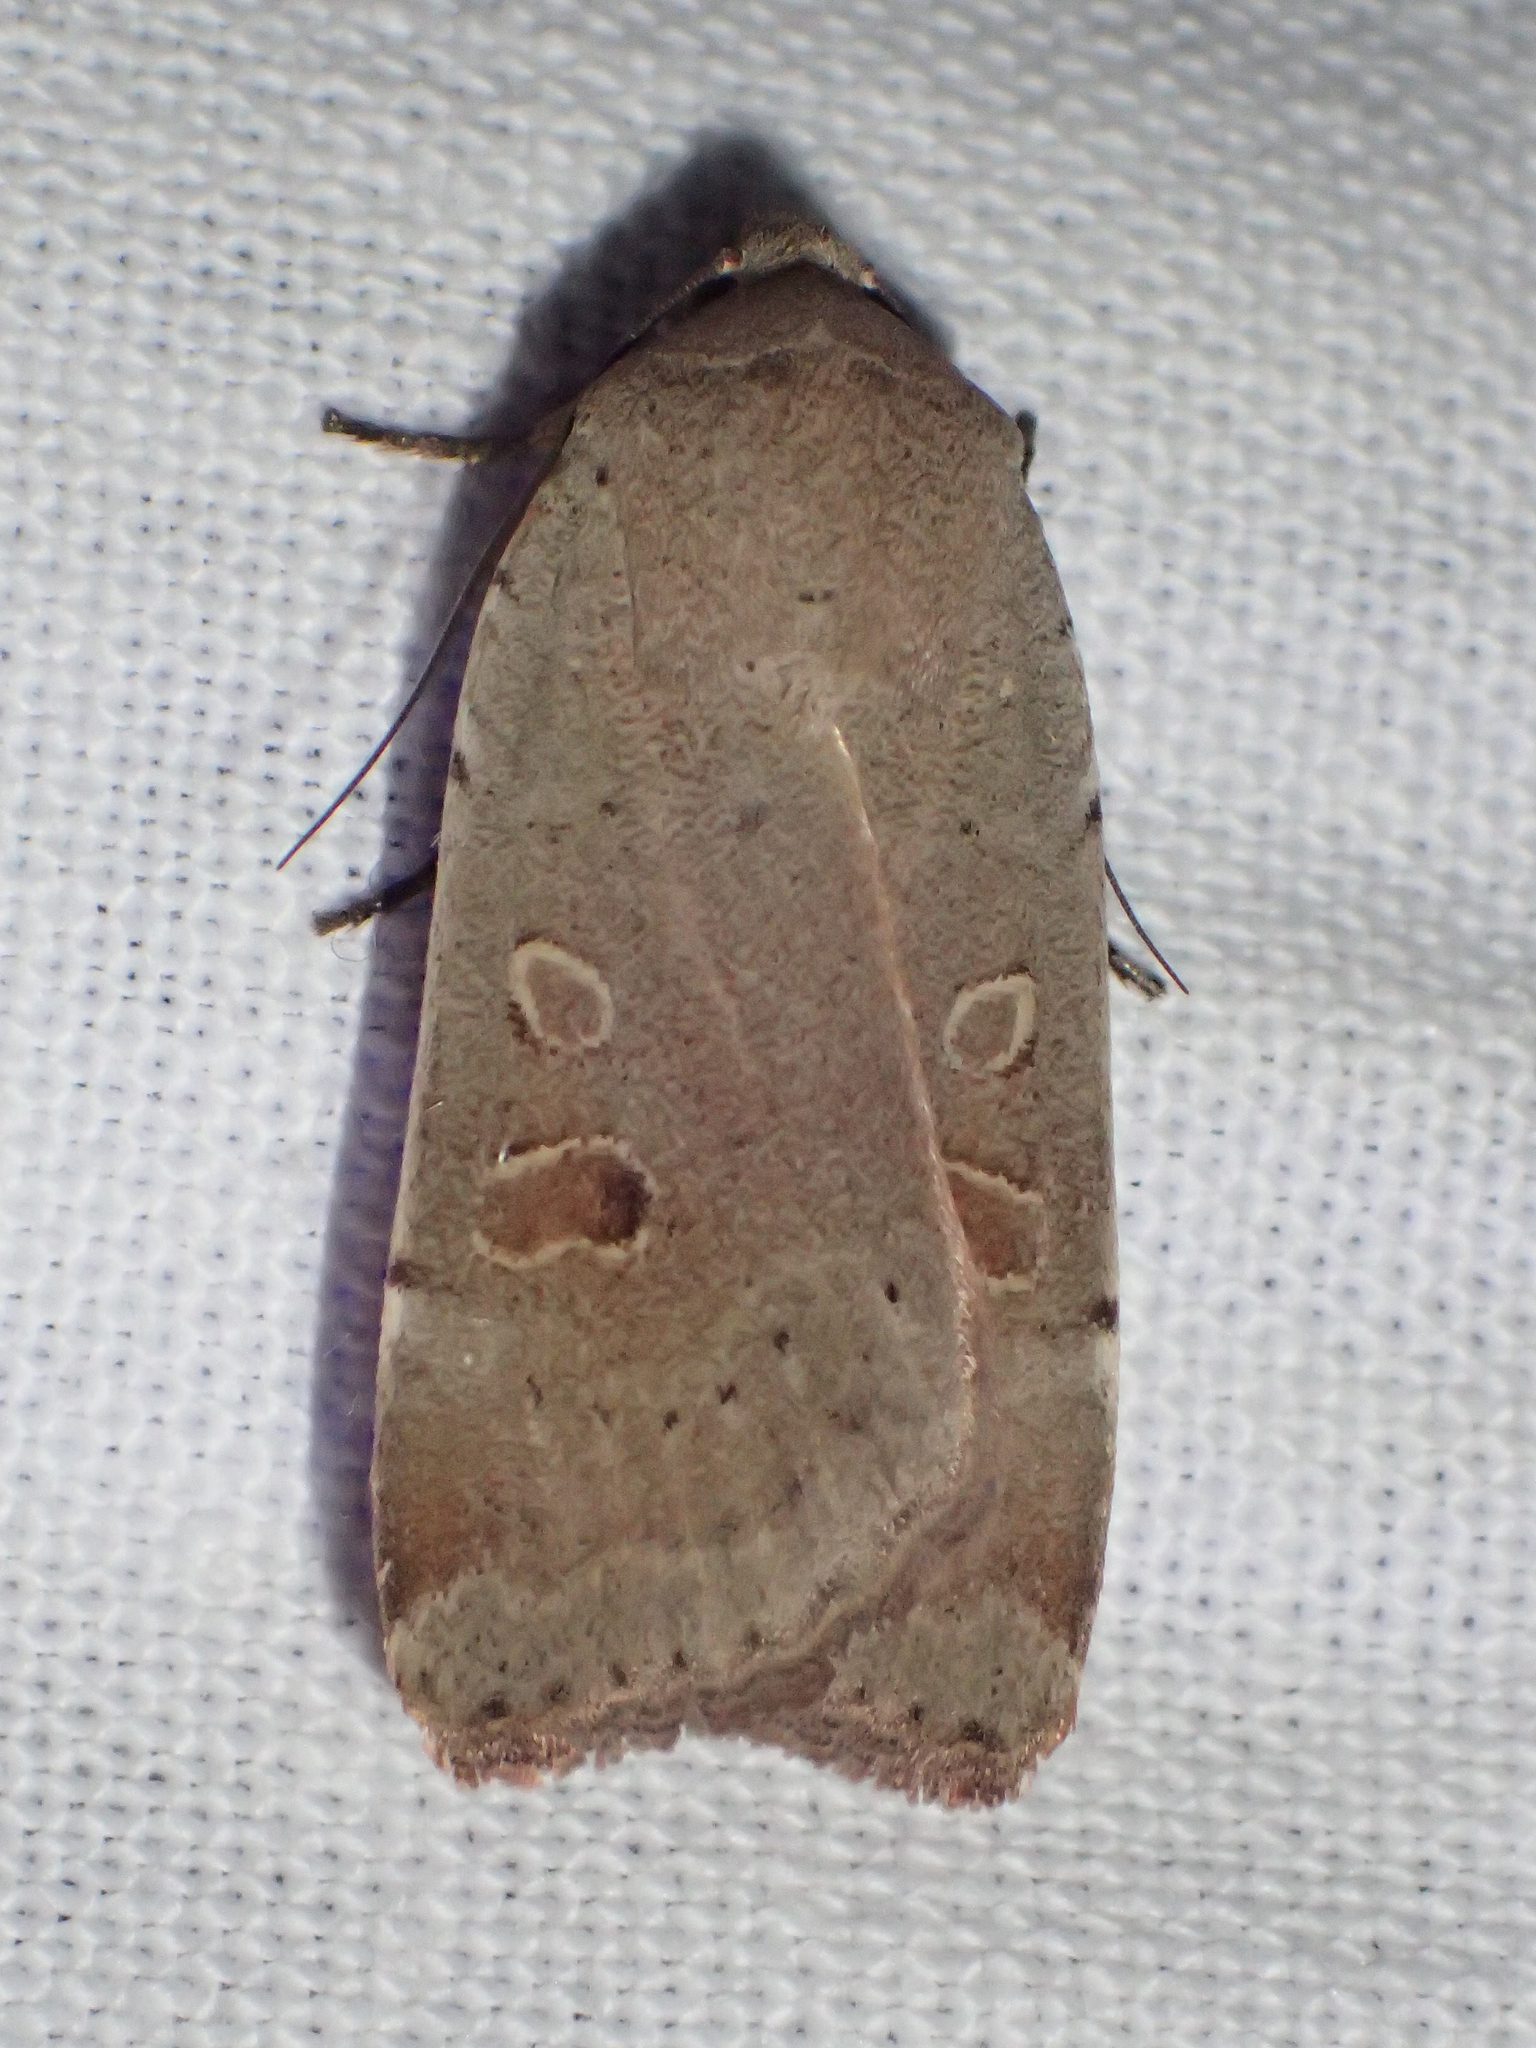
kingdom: Animalia
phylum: Arthropoda
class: Insecta
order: Lepidoptera
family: Noctuidae
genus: Noctua
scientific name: Noctua comes
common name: Lesser yellow underwing
